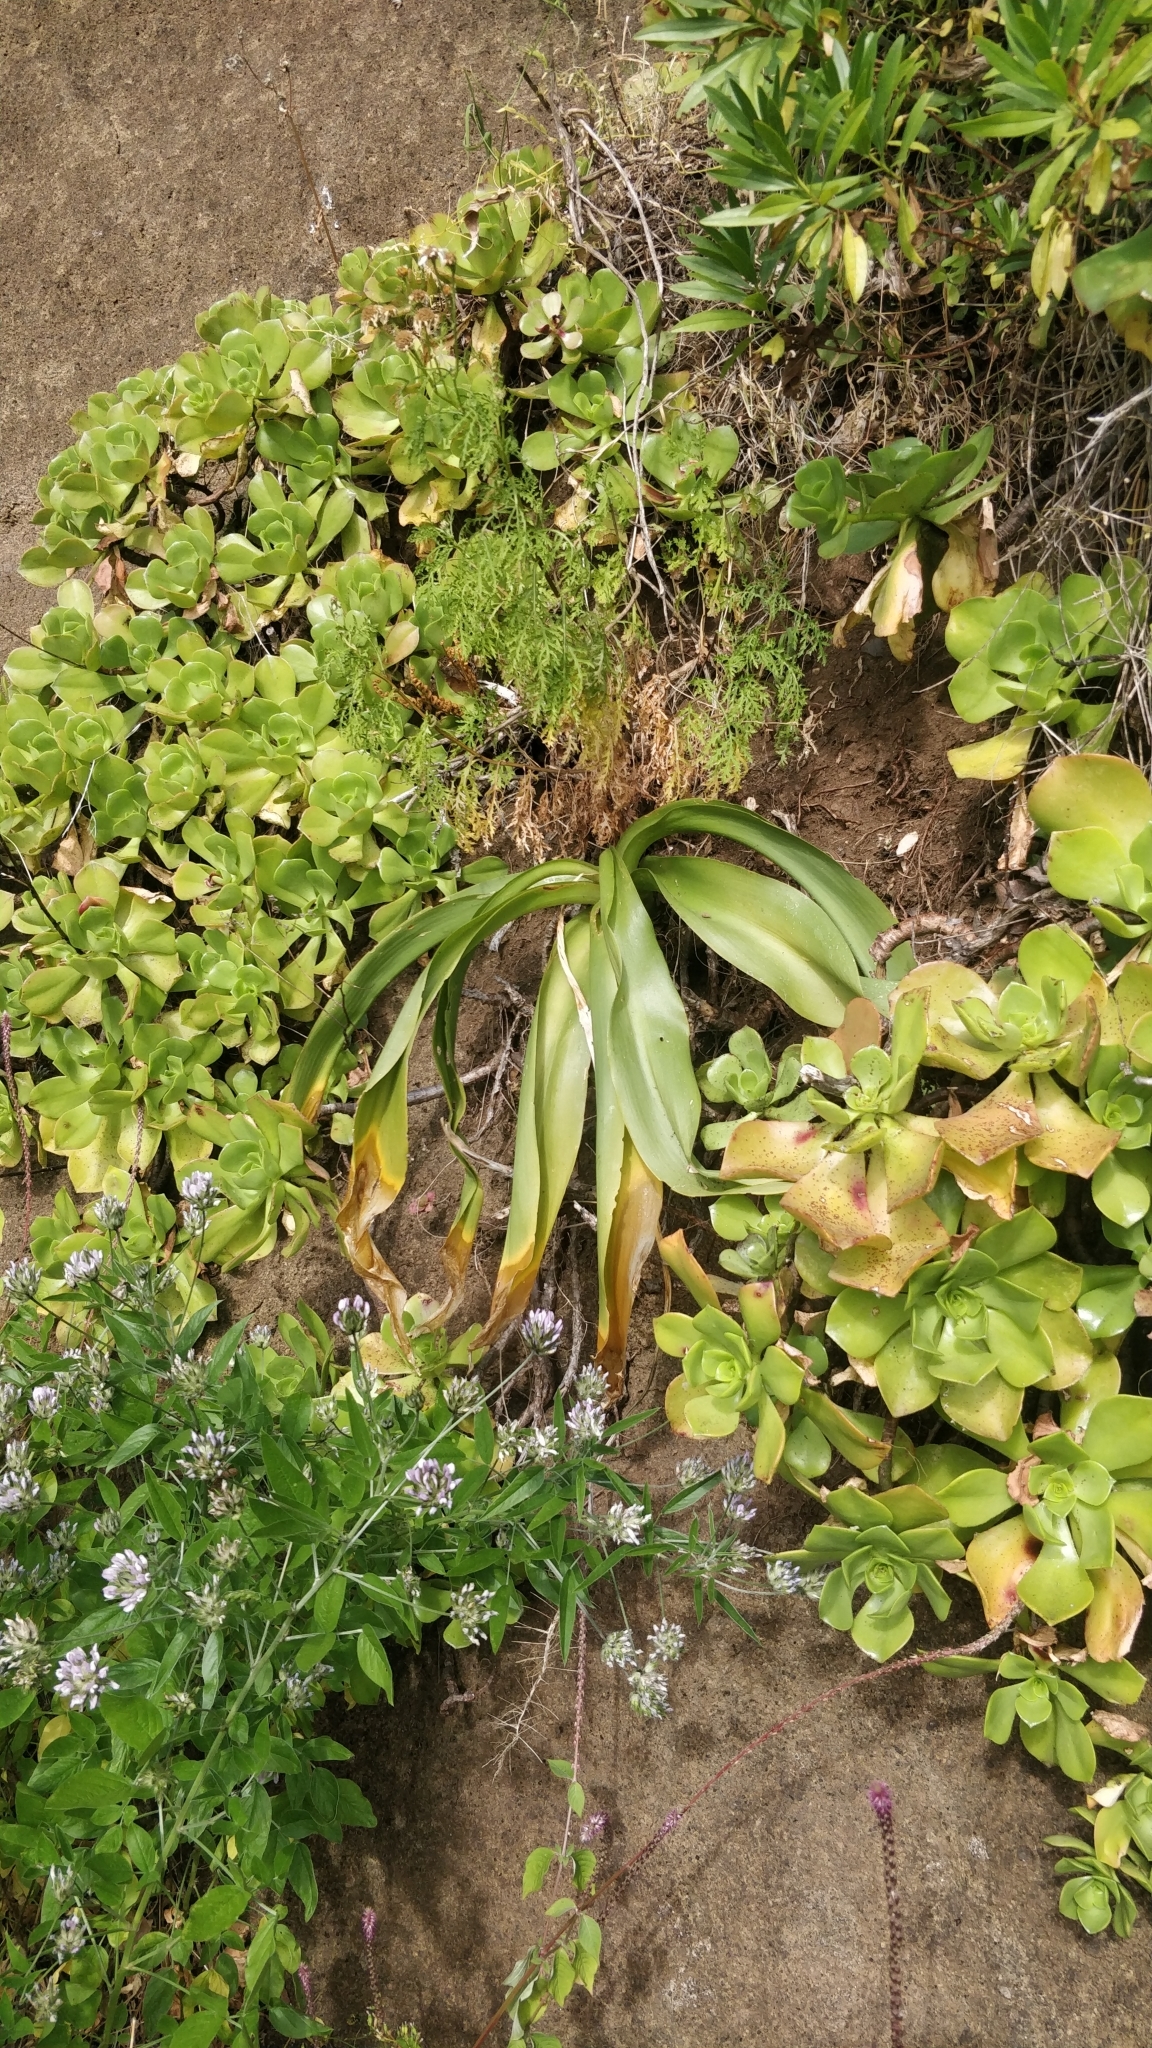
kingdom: Plantae
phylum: Tracheophyta
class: Liliopsida
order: Asparagales
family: Asparagaceae
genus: Scilla
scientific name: Scilla madeirensis
